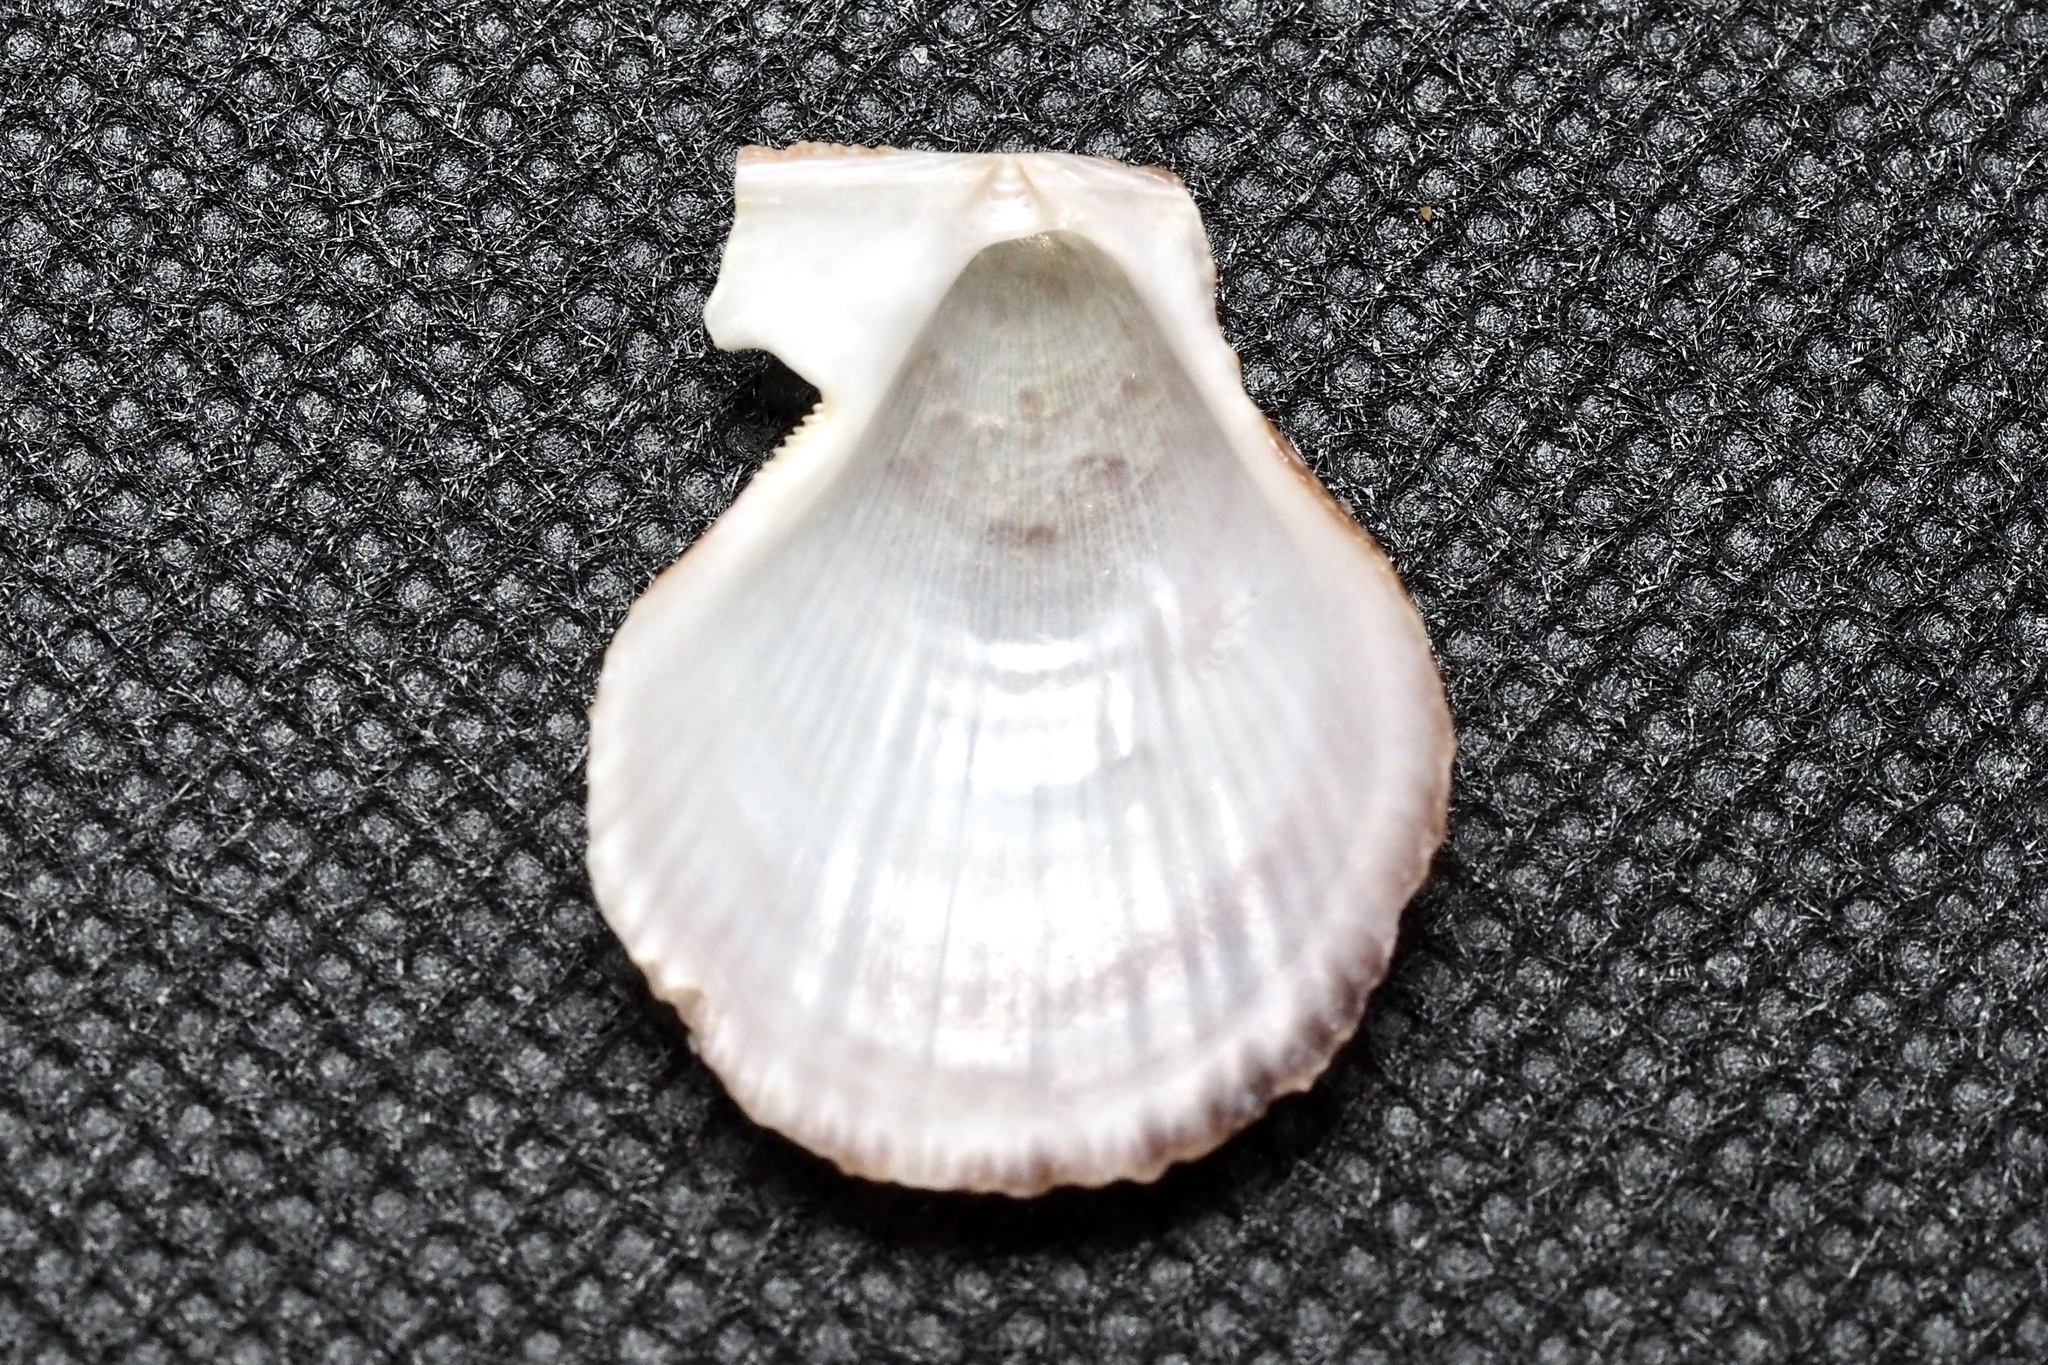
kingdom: Animalia
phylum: Mollusca
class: Bivalvia
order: Pectinida
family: Pectinidae
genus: Chlamys
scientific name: Chlamys farreri
